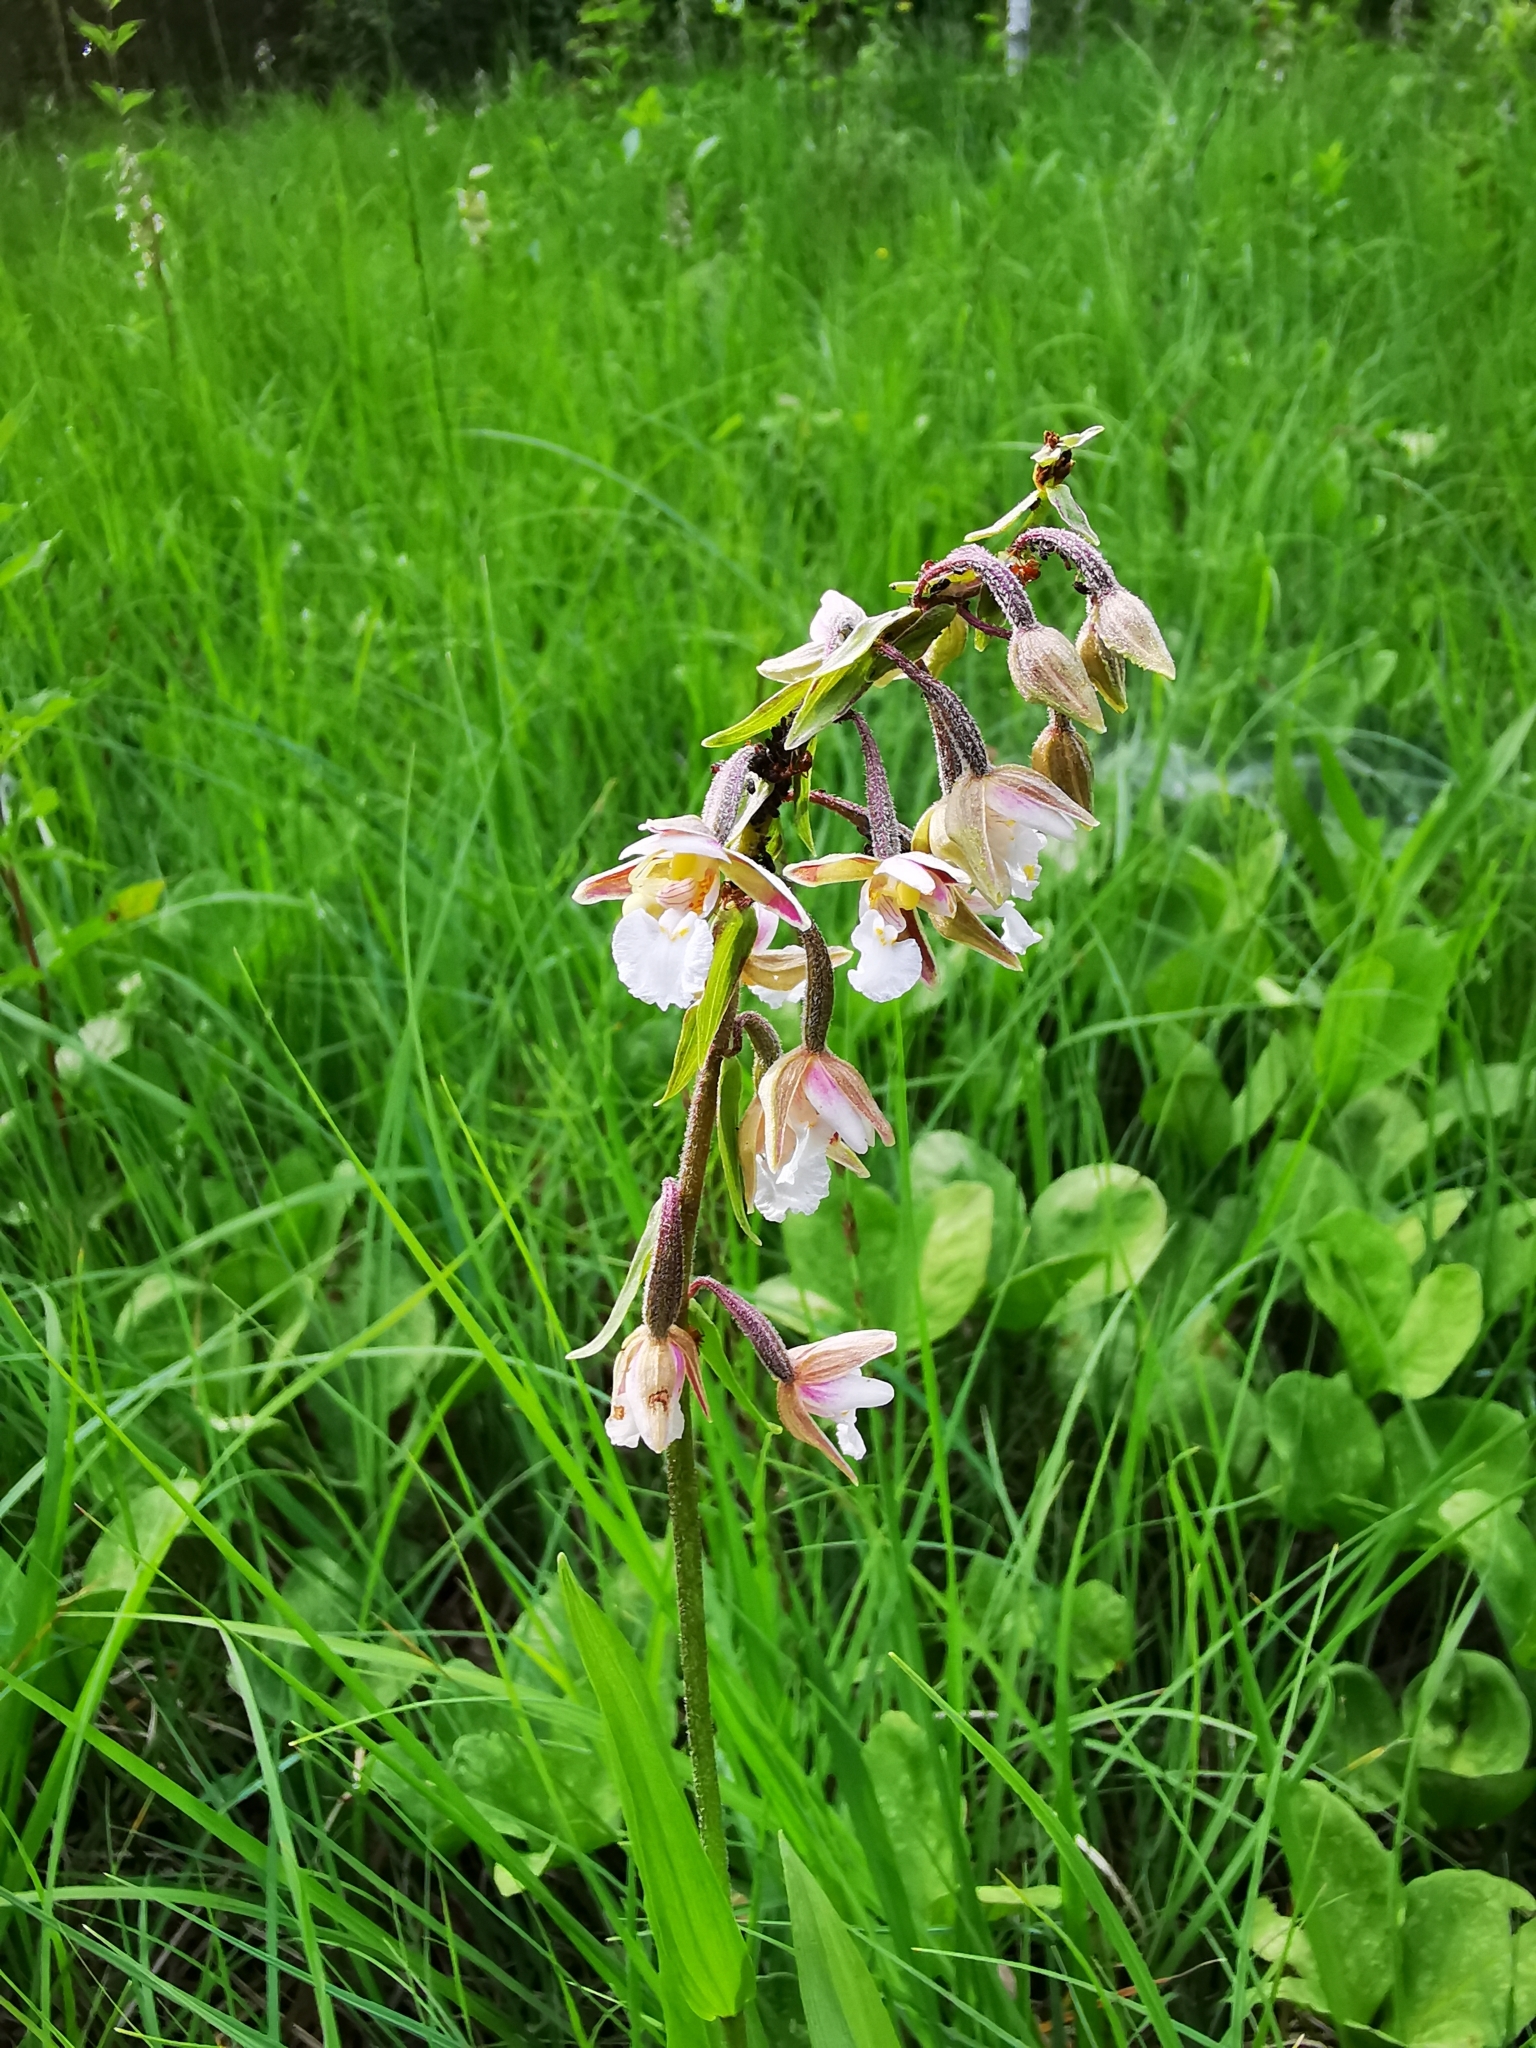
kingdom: Plantae
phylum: Tracheophyta
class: Liliopsida
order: Asparagales
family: Orchidaceae
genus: Epipactis
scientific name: Epipactis palustris
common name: Marsh helleborine
